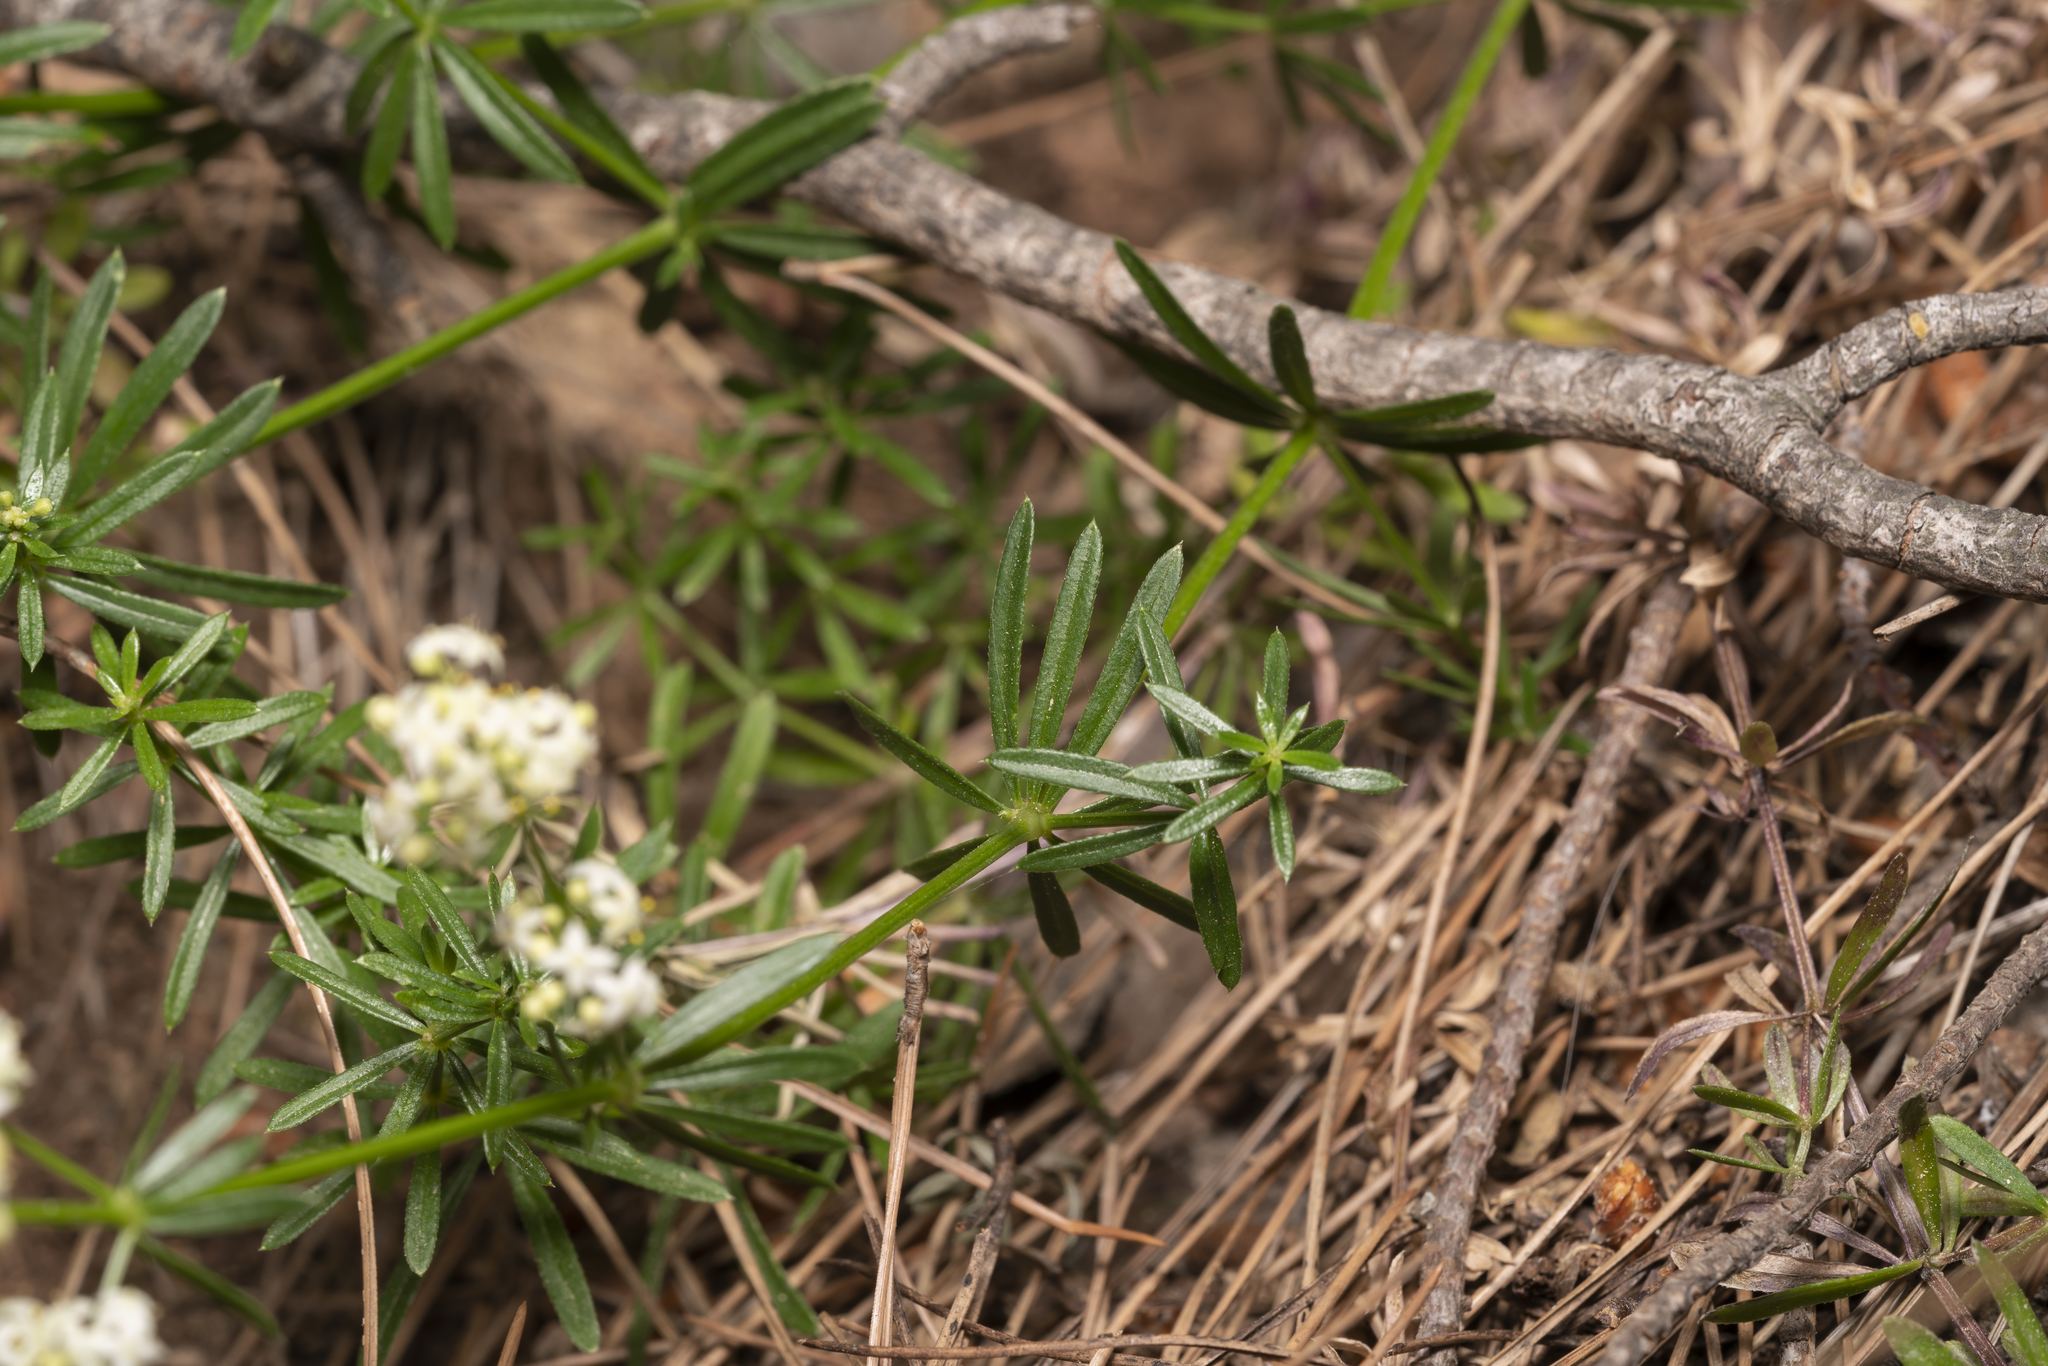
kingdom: Plantae
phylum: Tracheophyta
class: Magnoliopsida
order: Gentianales
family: Rubiaceae
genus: Galium
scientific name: Galium heldreichii
